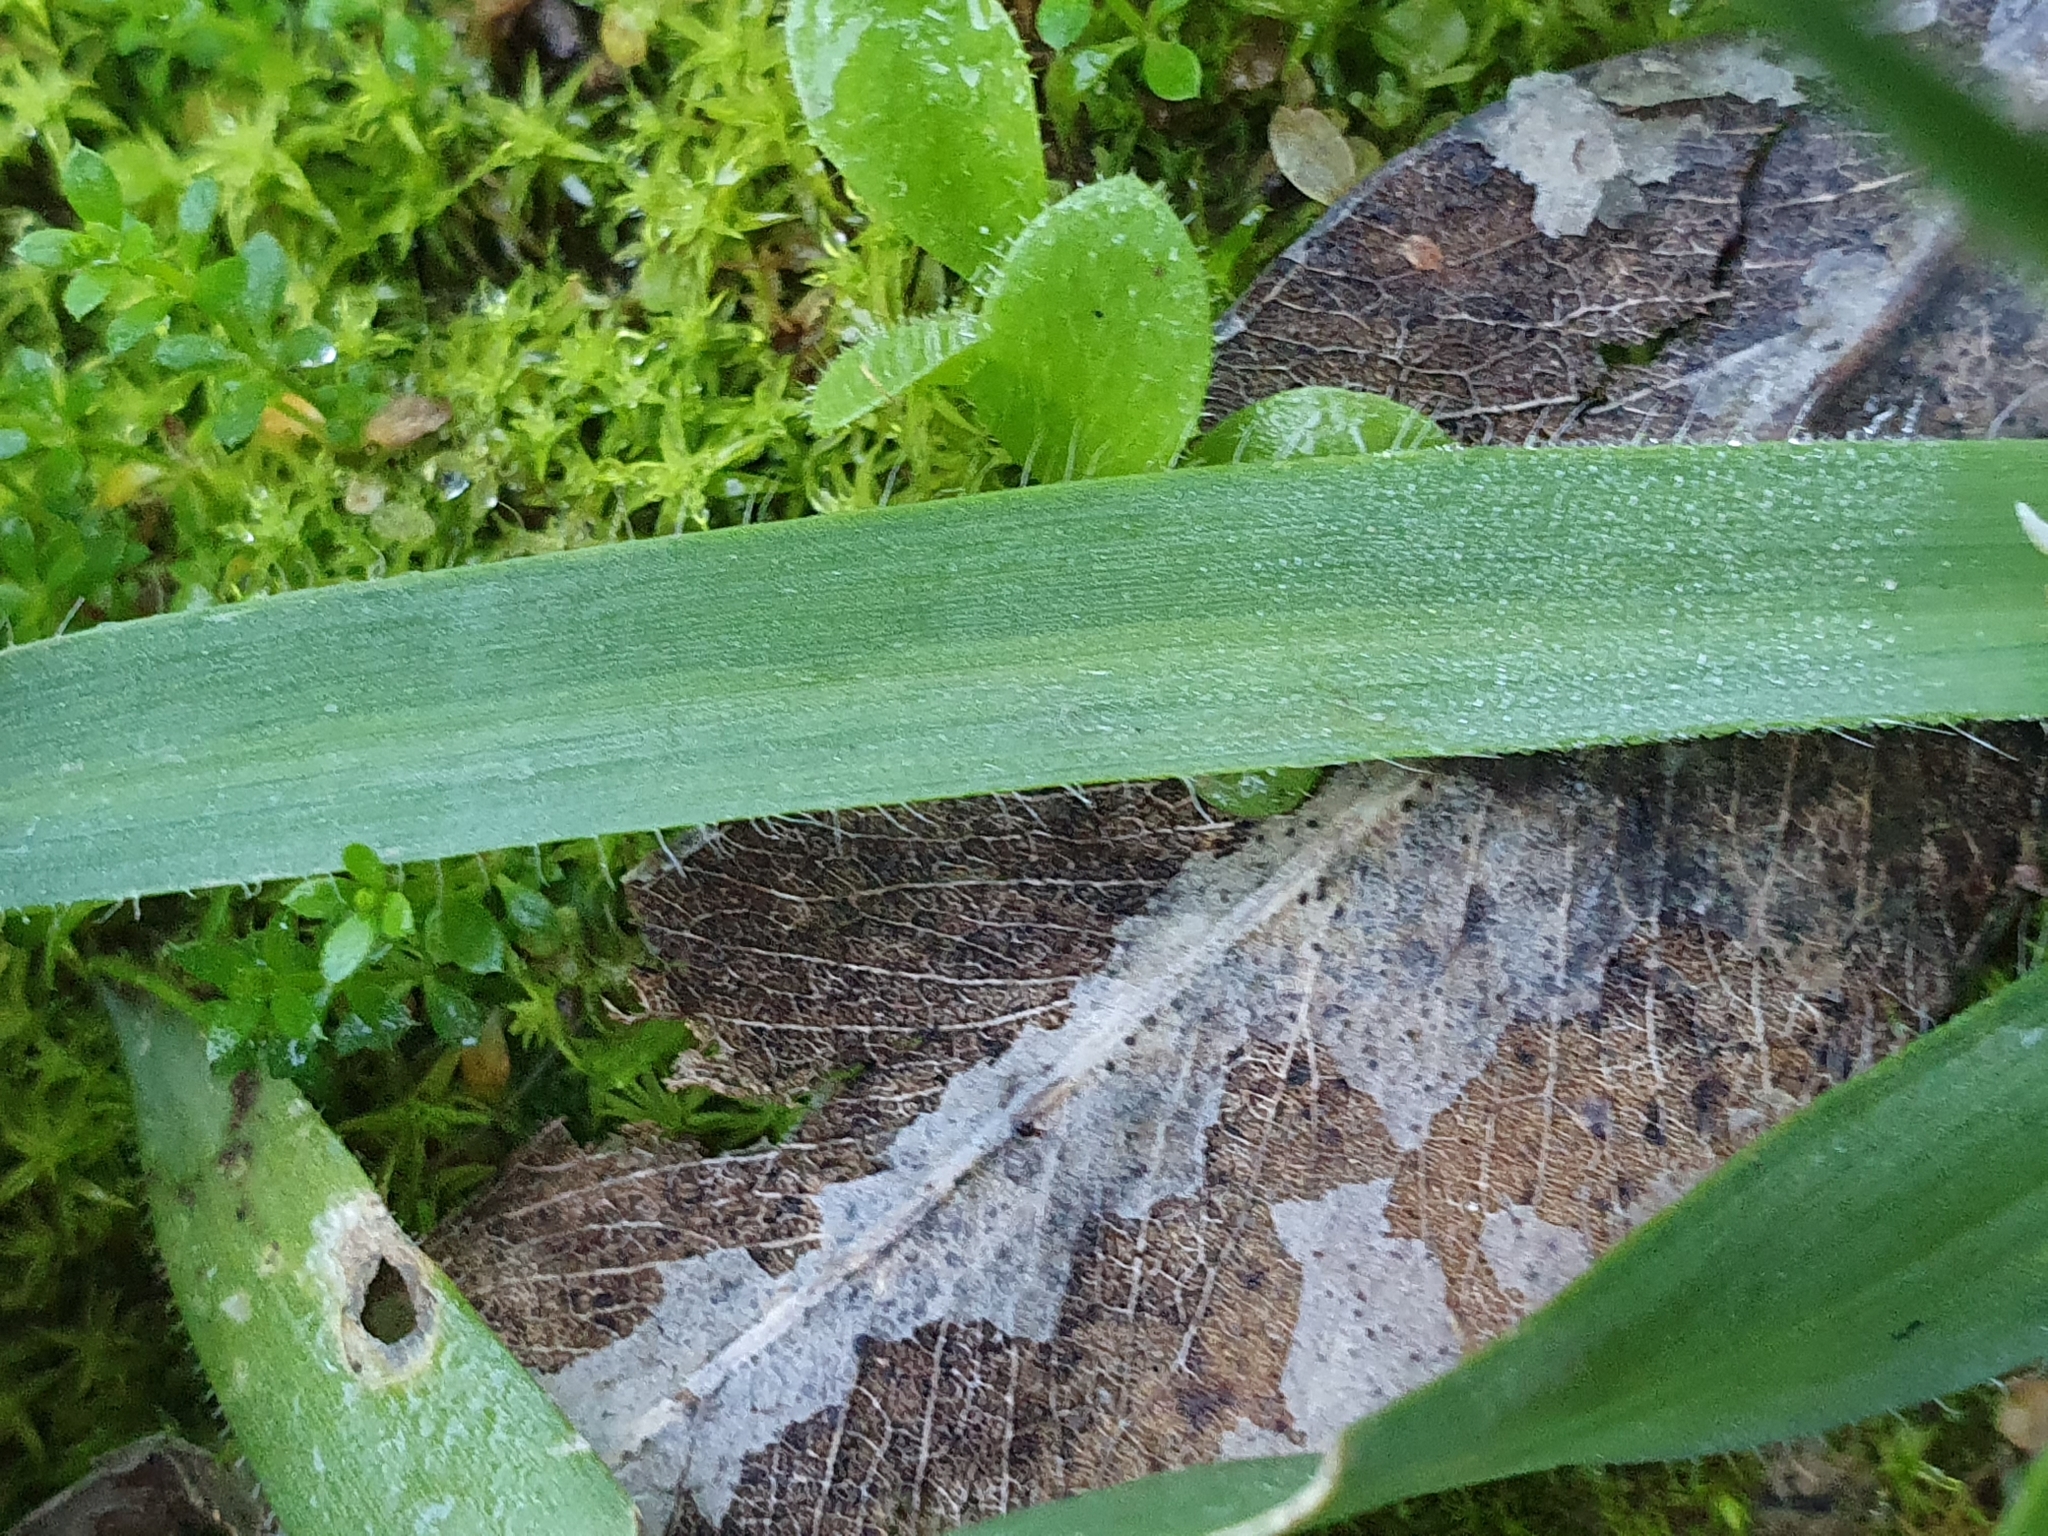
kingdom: Plantae
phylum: Tracheophyta
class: Liliopsida
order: Asparagales
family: Amaryllidaceae
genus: Allium
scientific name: Allium chamaemoly
